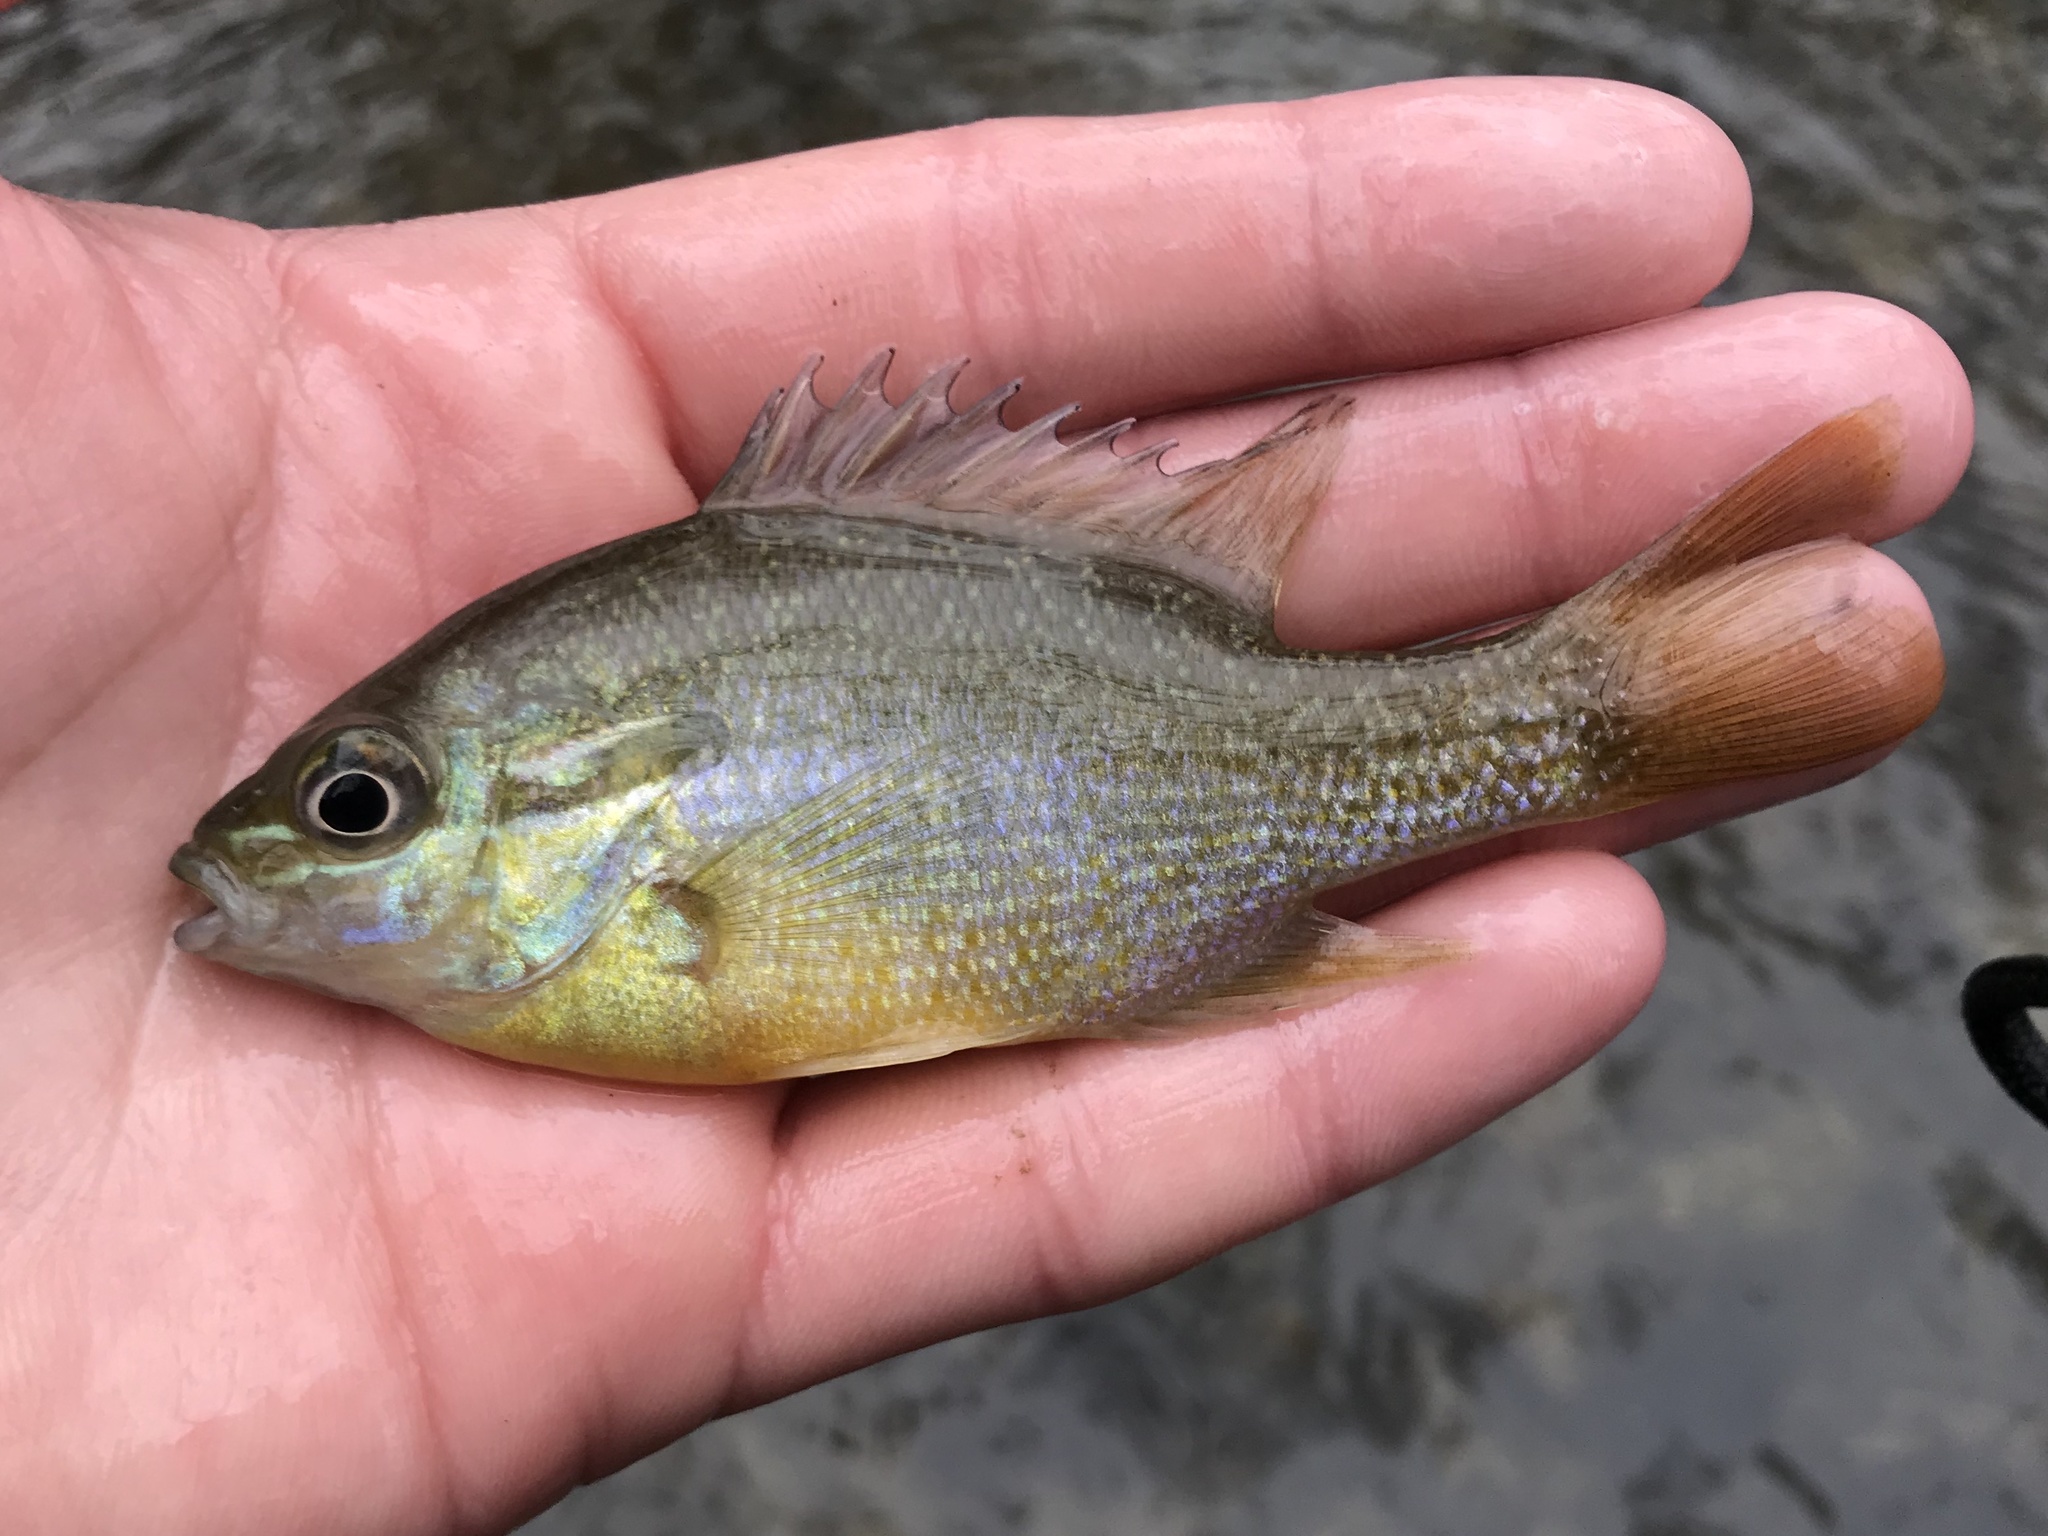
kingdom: Animalia
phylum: Chordata
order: Perciformes
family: Centrarchidae
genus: Lepomis
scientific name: Lepomis auritus
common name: Redbreast sunfish
